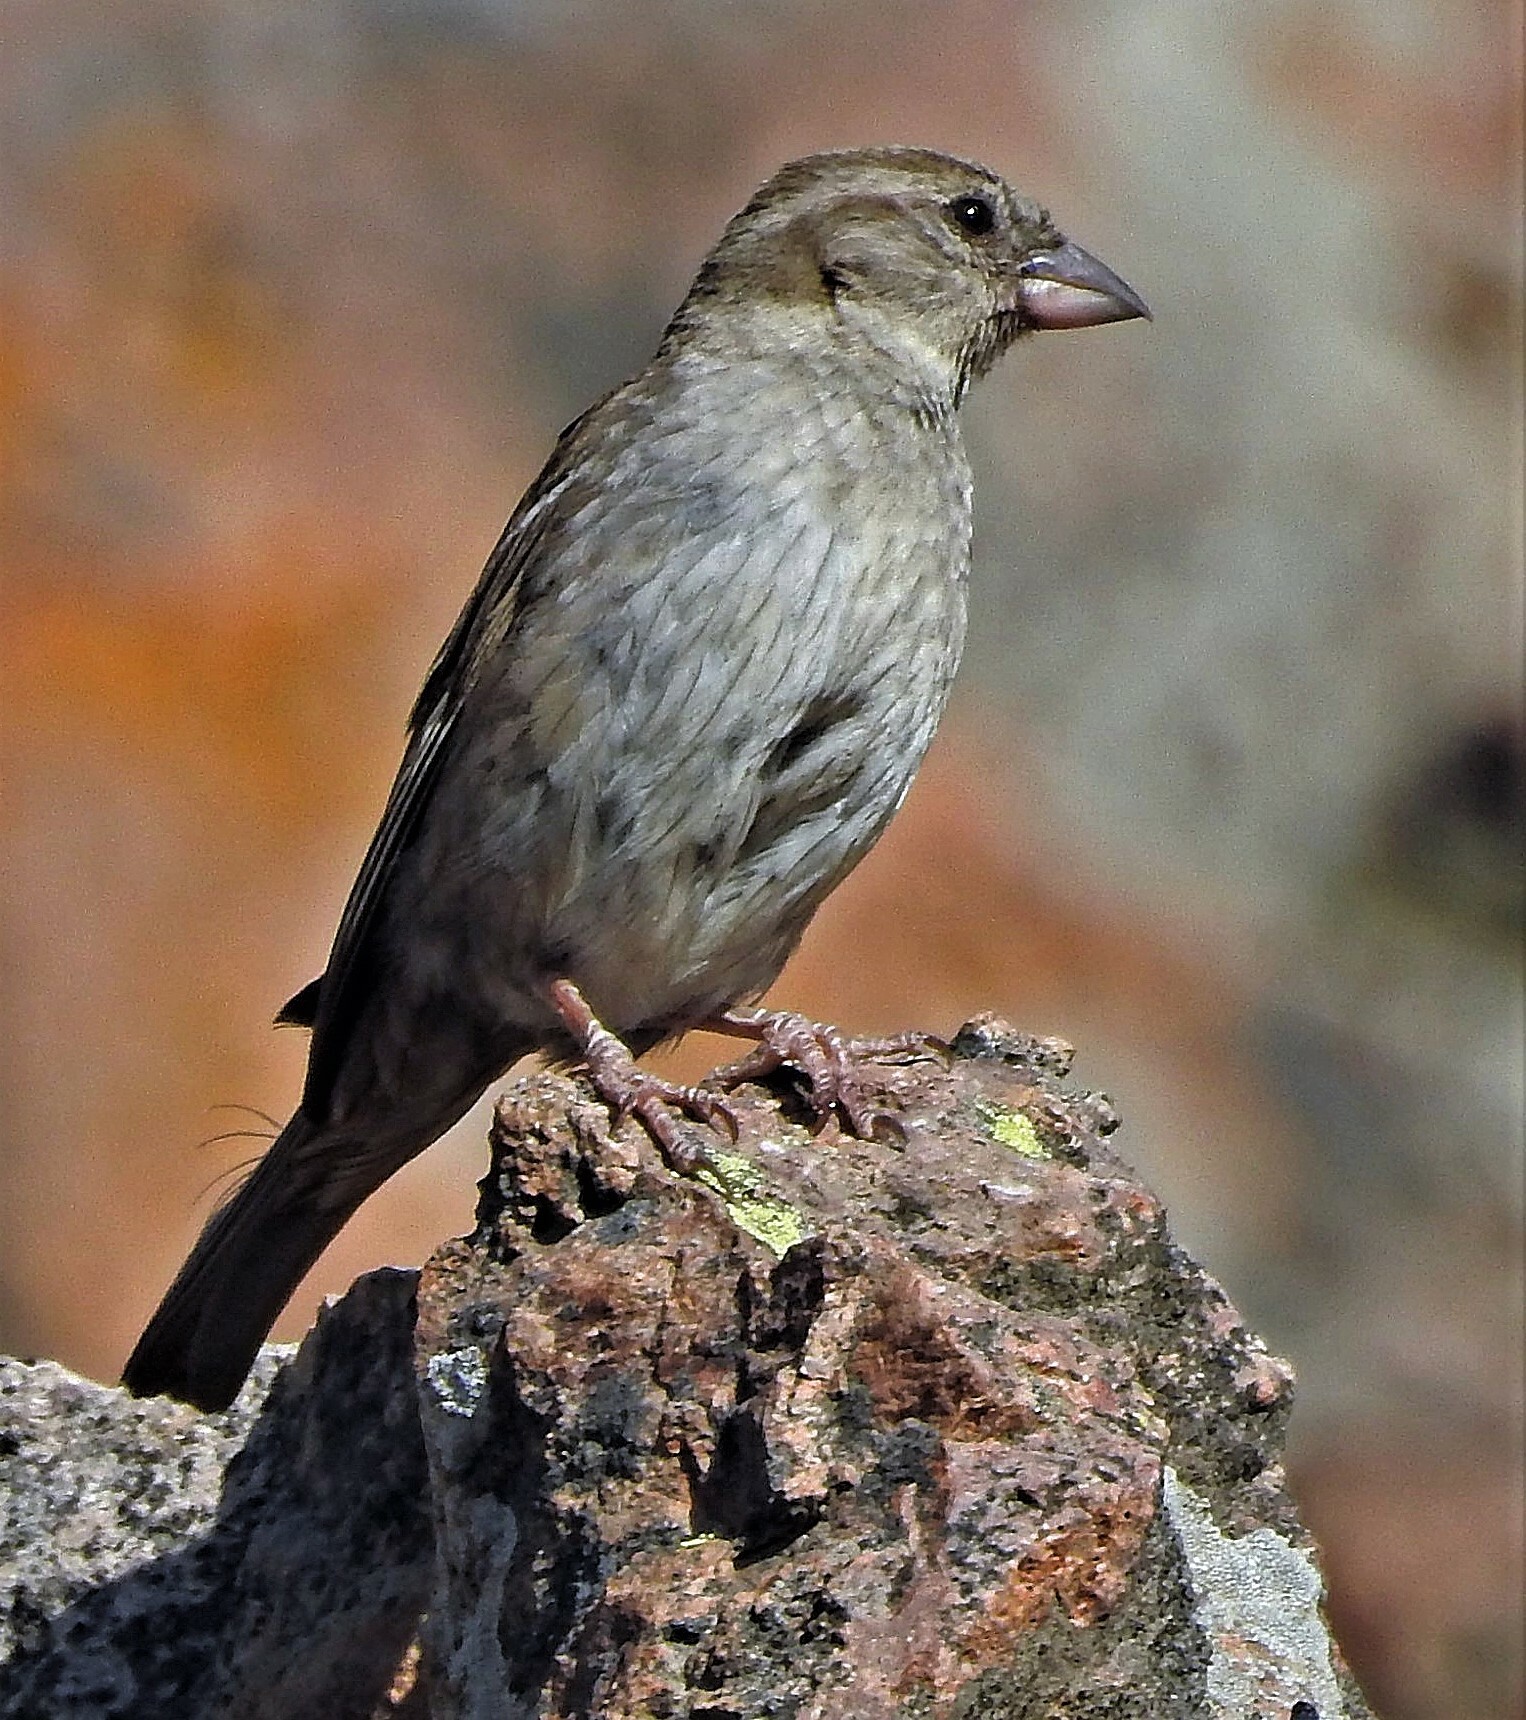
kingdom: Animalia
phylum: Chordata
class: Aves
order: Passeriformes
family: Passeridae
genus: Passer
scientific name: Passer domesticus
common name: House sparrow
